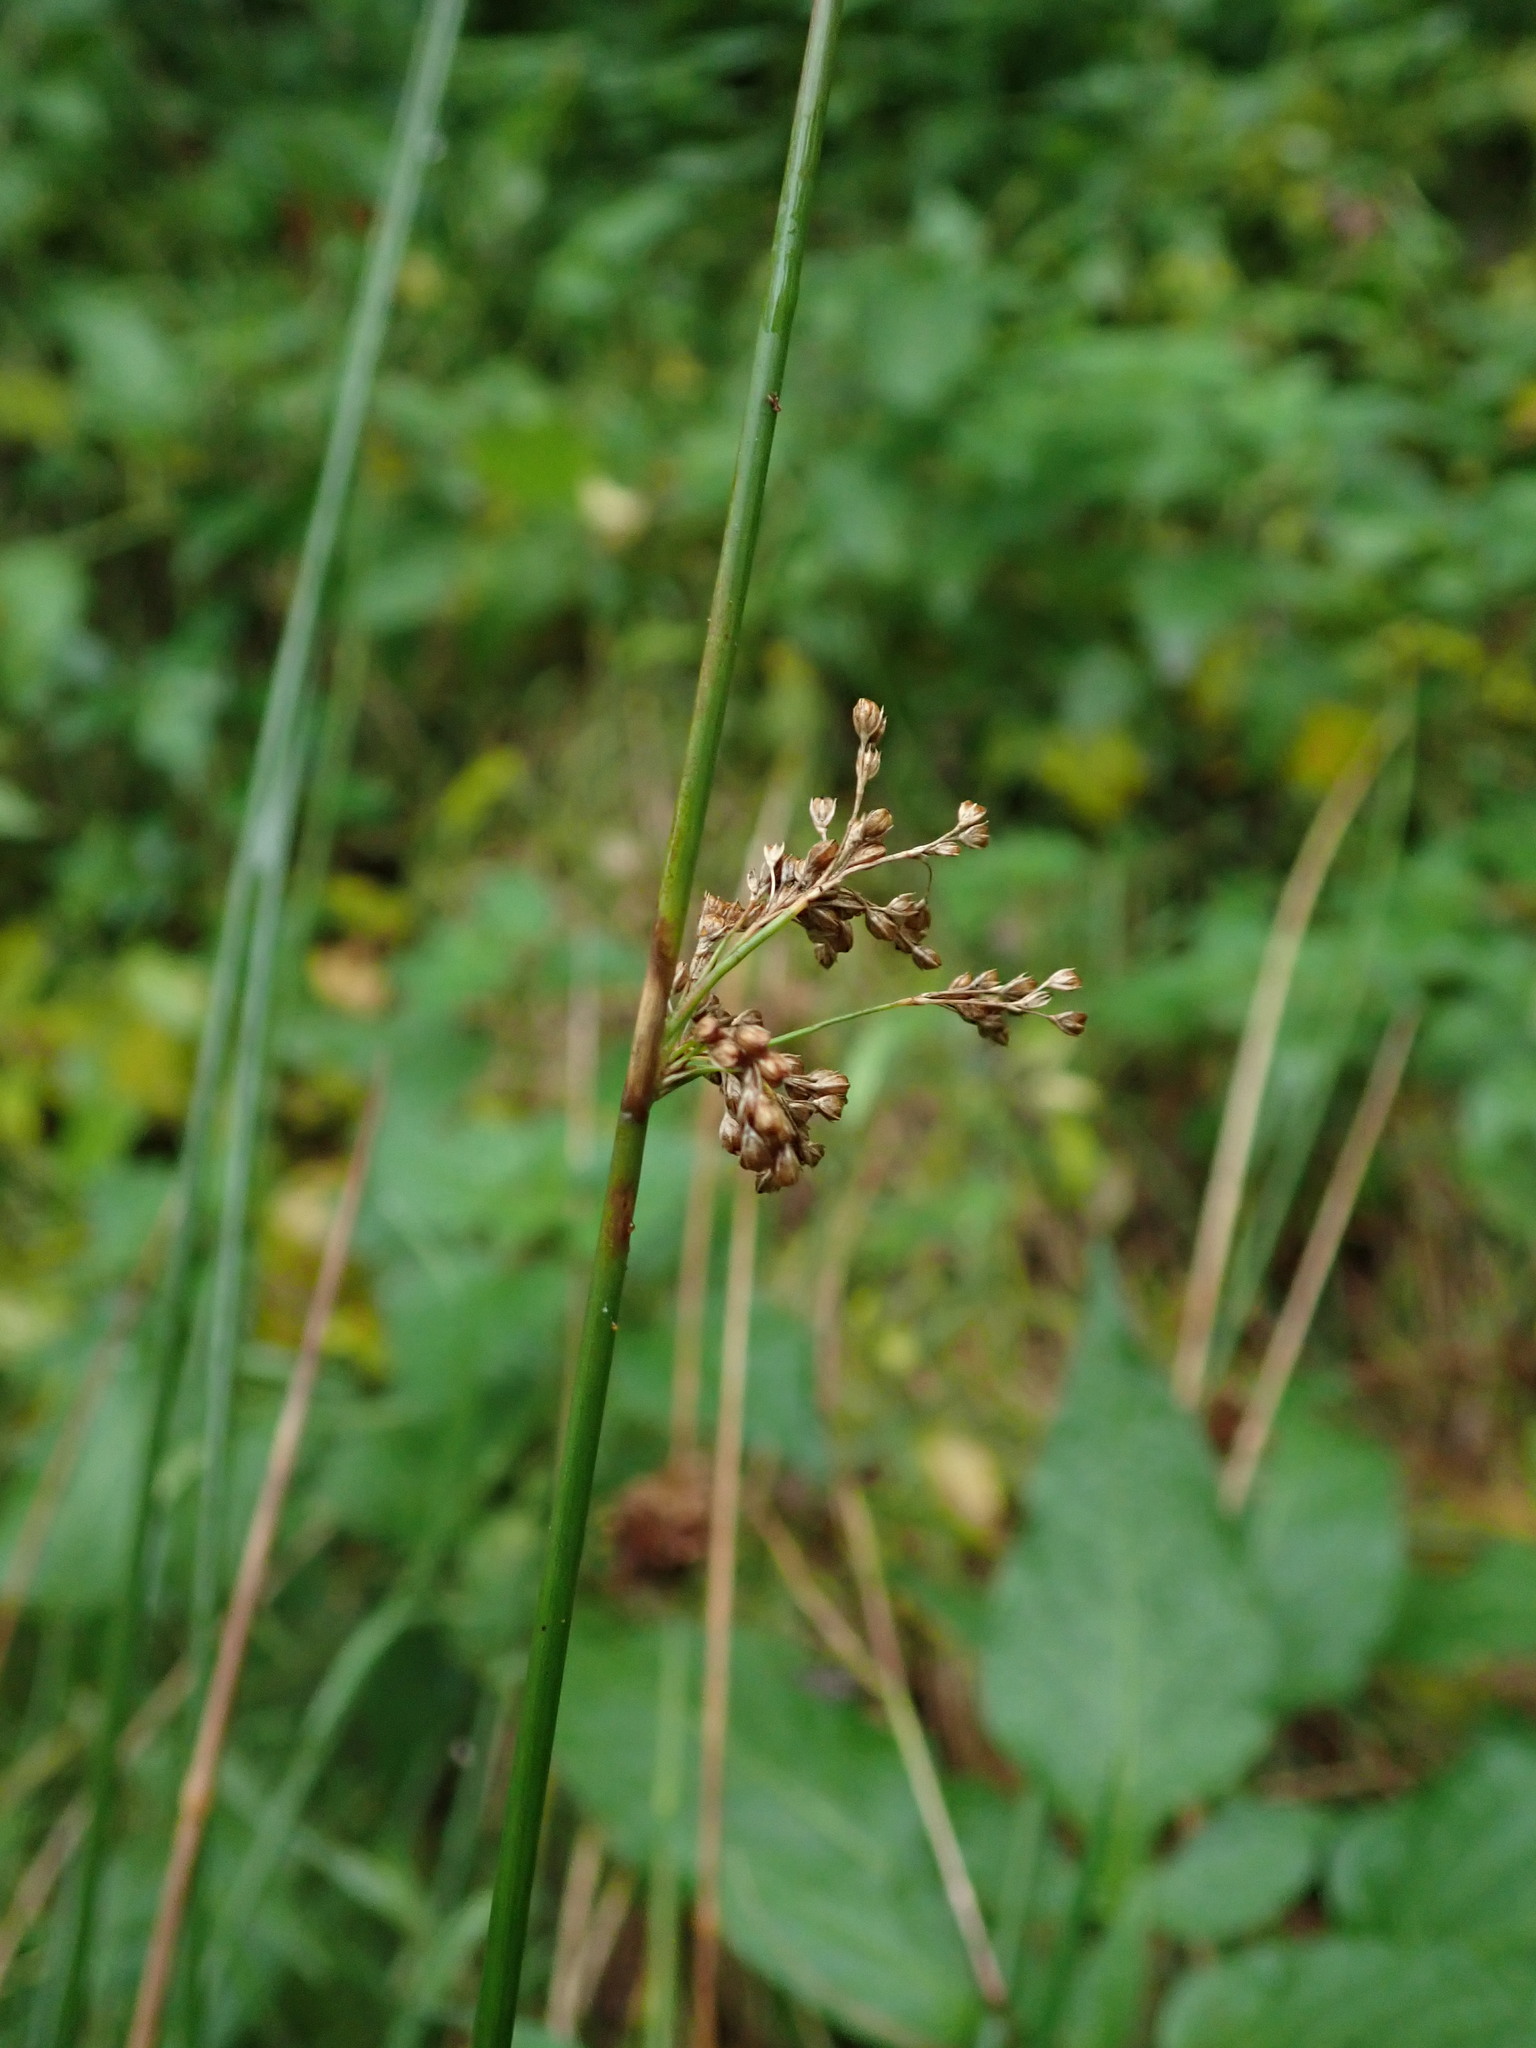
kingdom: Plantae
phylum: Tracheophyta
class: Liliopsida
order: Poales
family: Juncaceae
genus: Juncus
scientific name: Juncus effusus
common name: Soft rush
